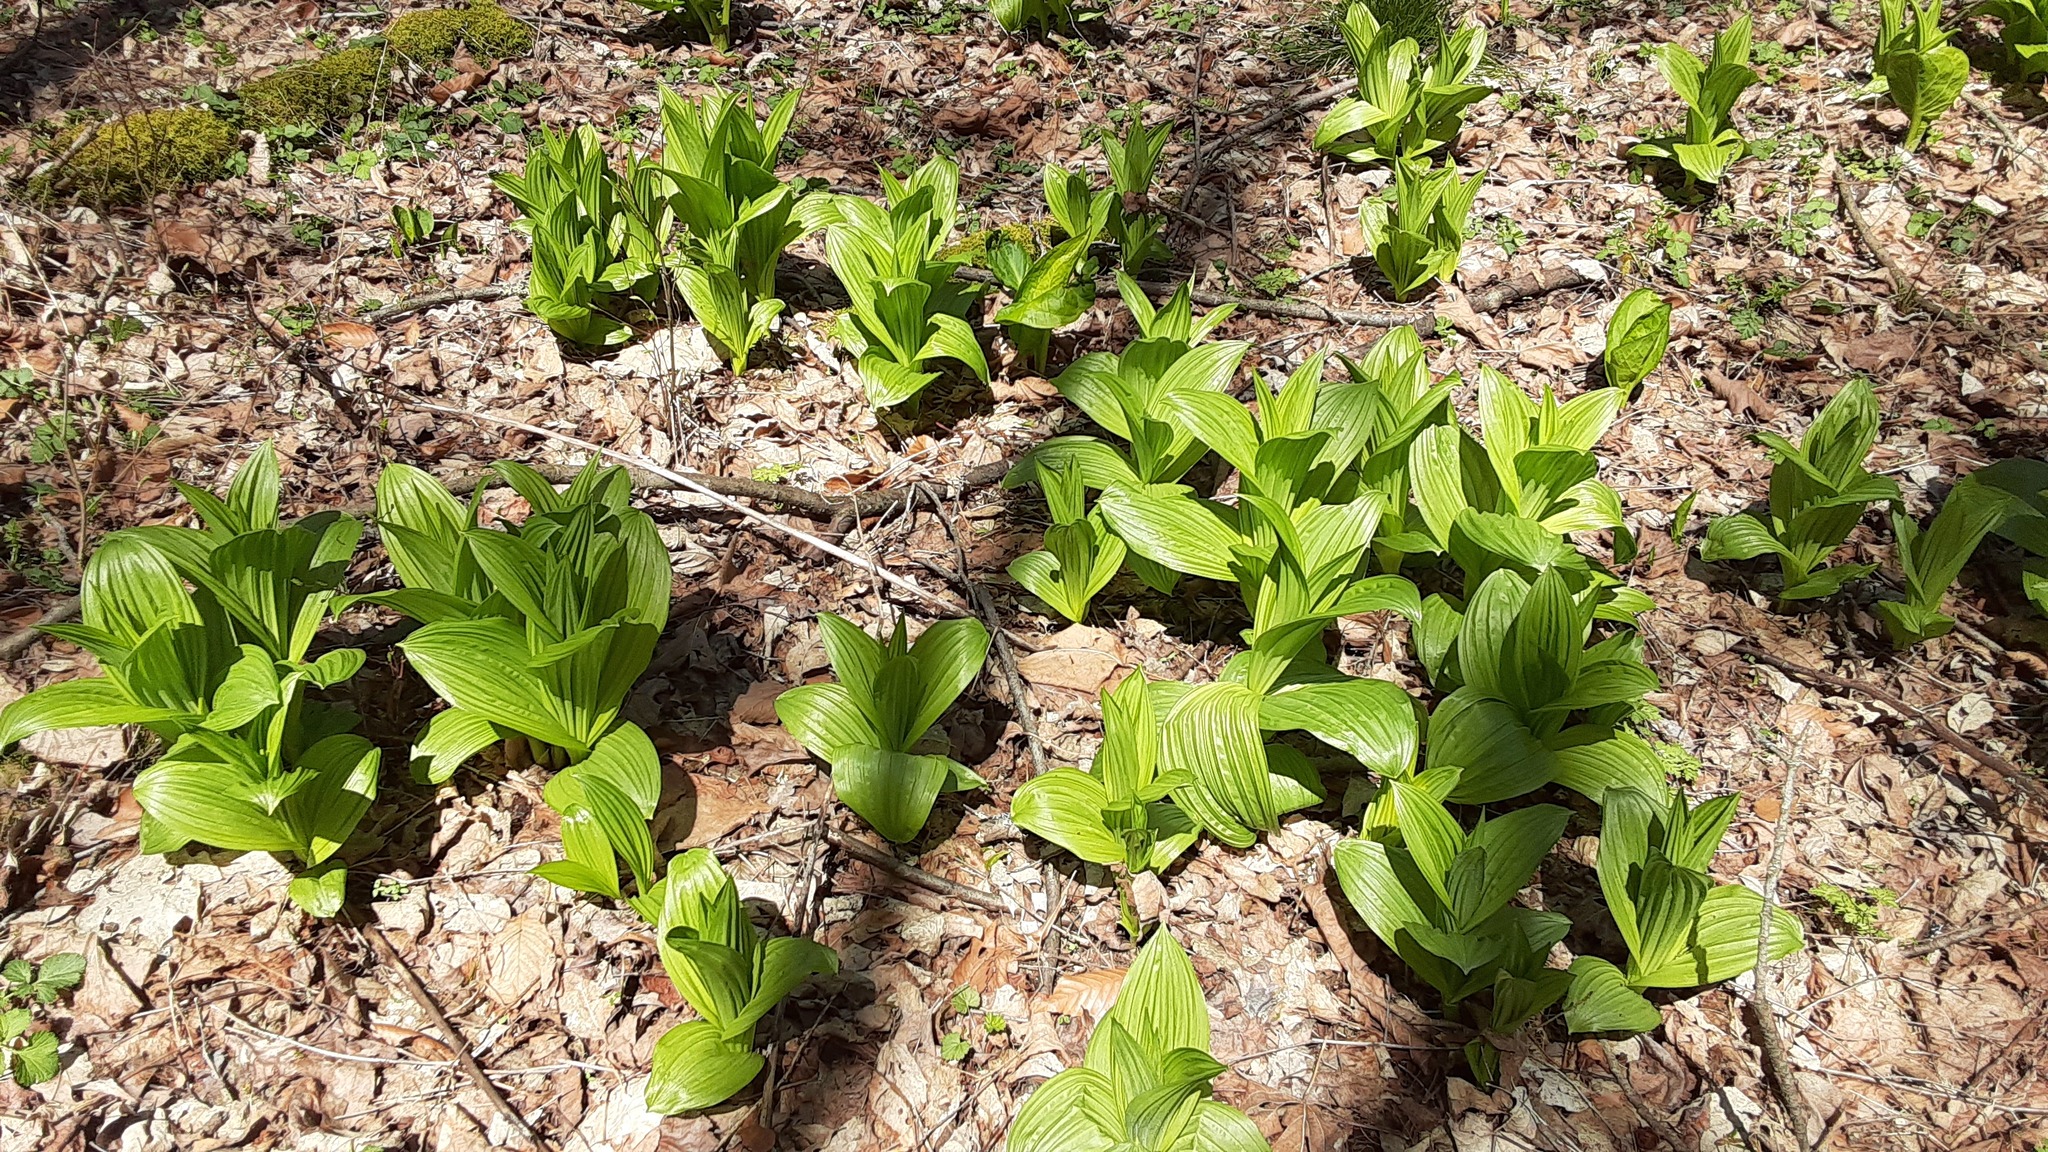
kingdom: Plantae
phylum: Tracheophyta
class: Liliopsida
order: Liliales
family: Melanthiaceae
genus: Veratrum
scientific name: Veratrum viride
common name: American false hellebore
